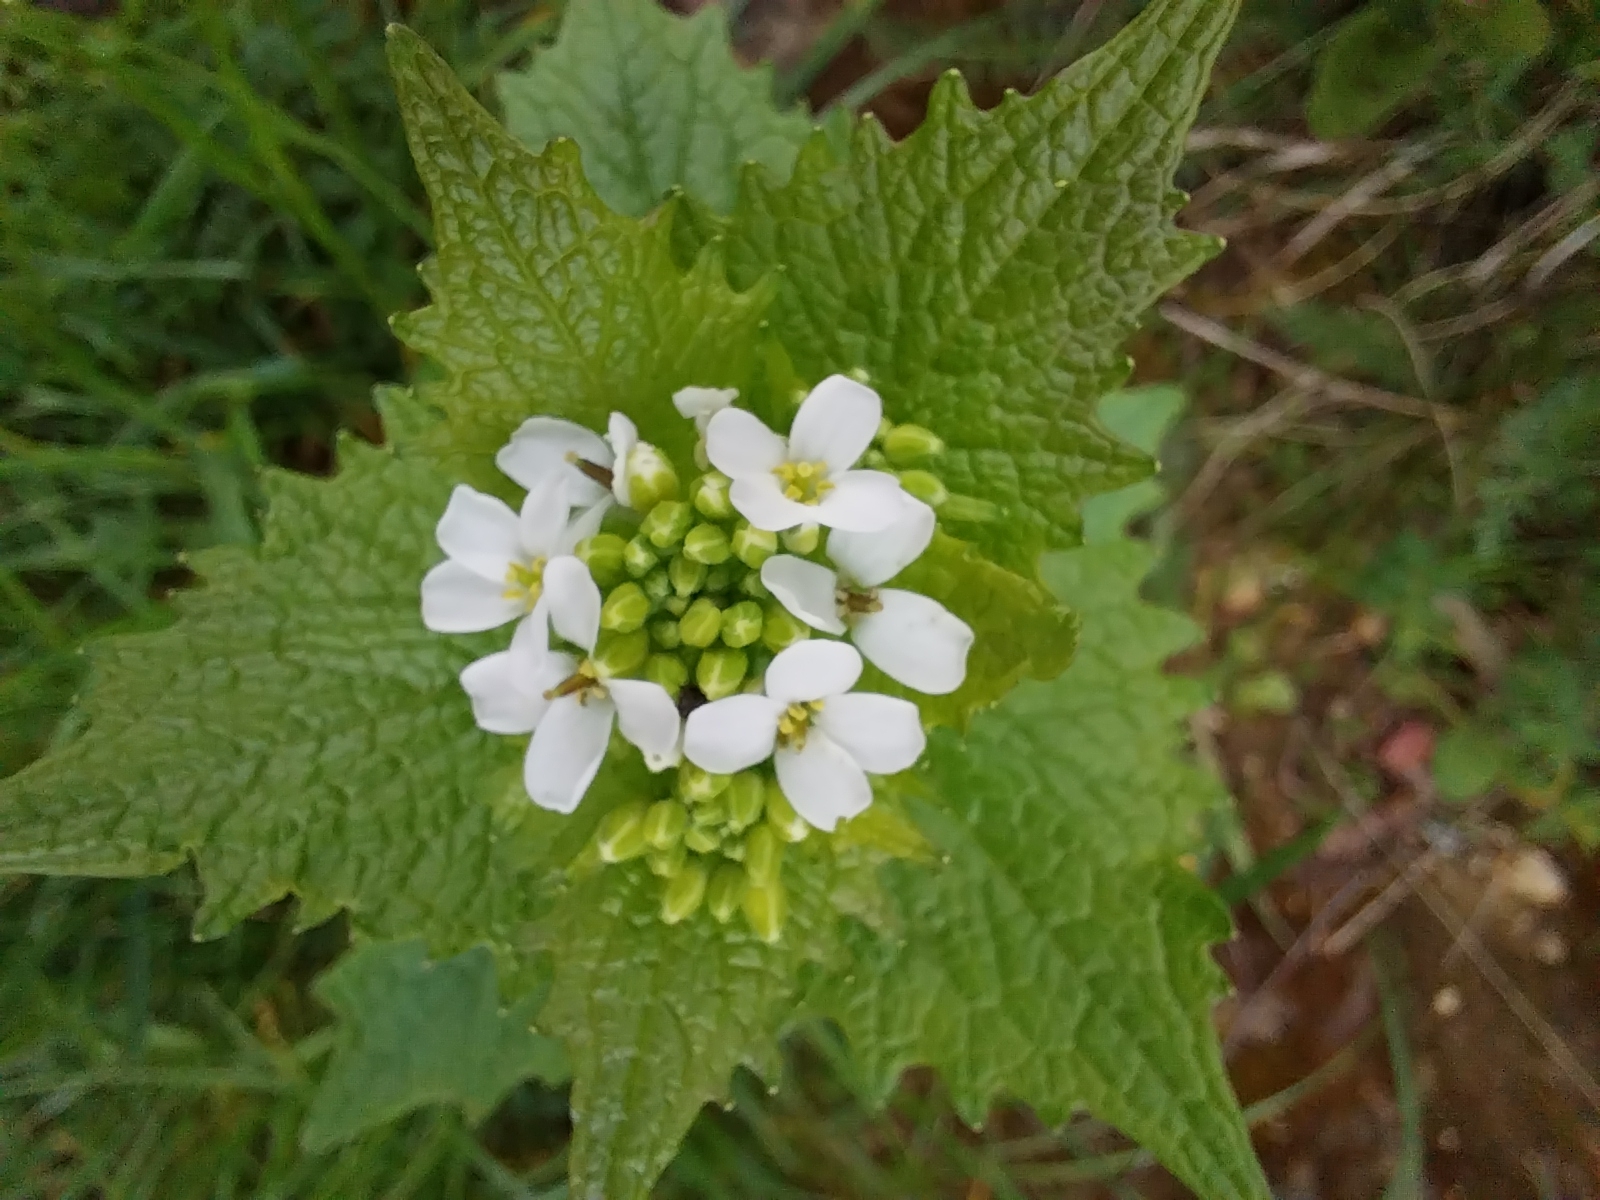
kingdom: Plantae
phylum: Tracheophyta
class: Magnoliopsida
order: Brassicales
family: Brassicaceae
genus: Alliaria
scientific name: Alliaria petiolata
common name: Garlic mustard
